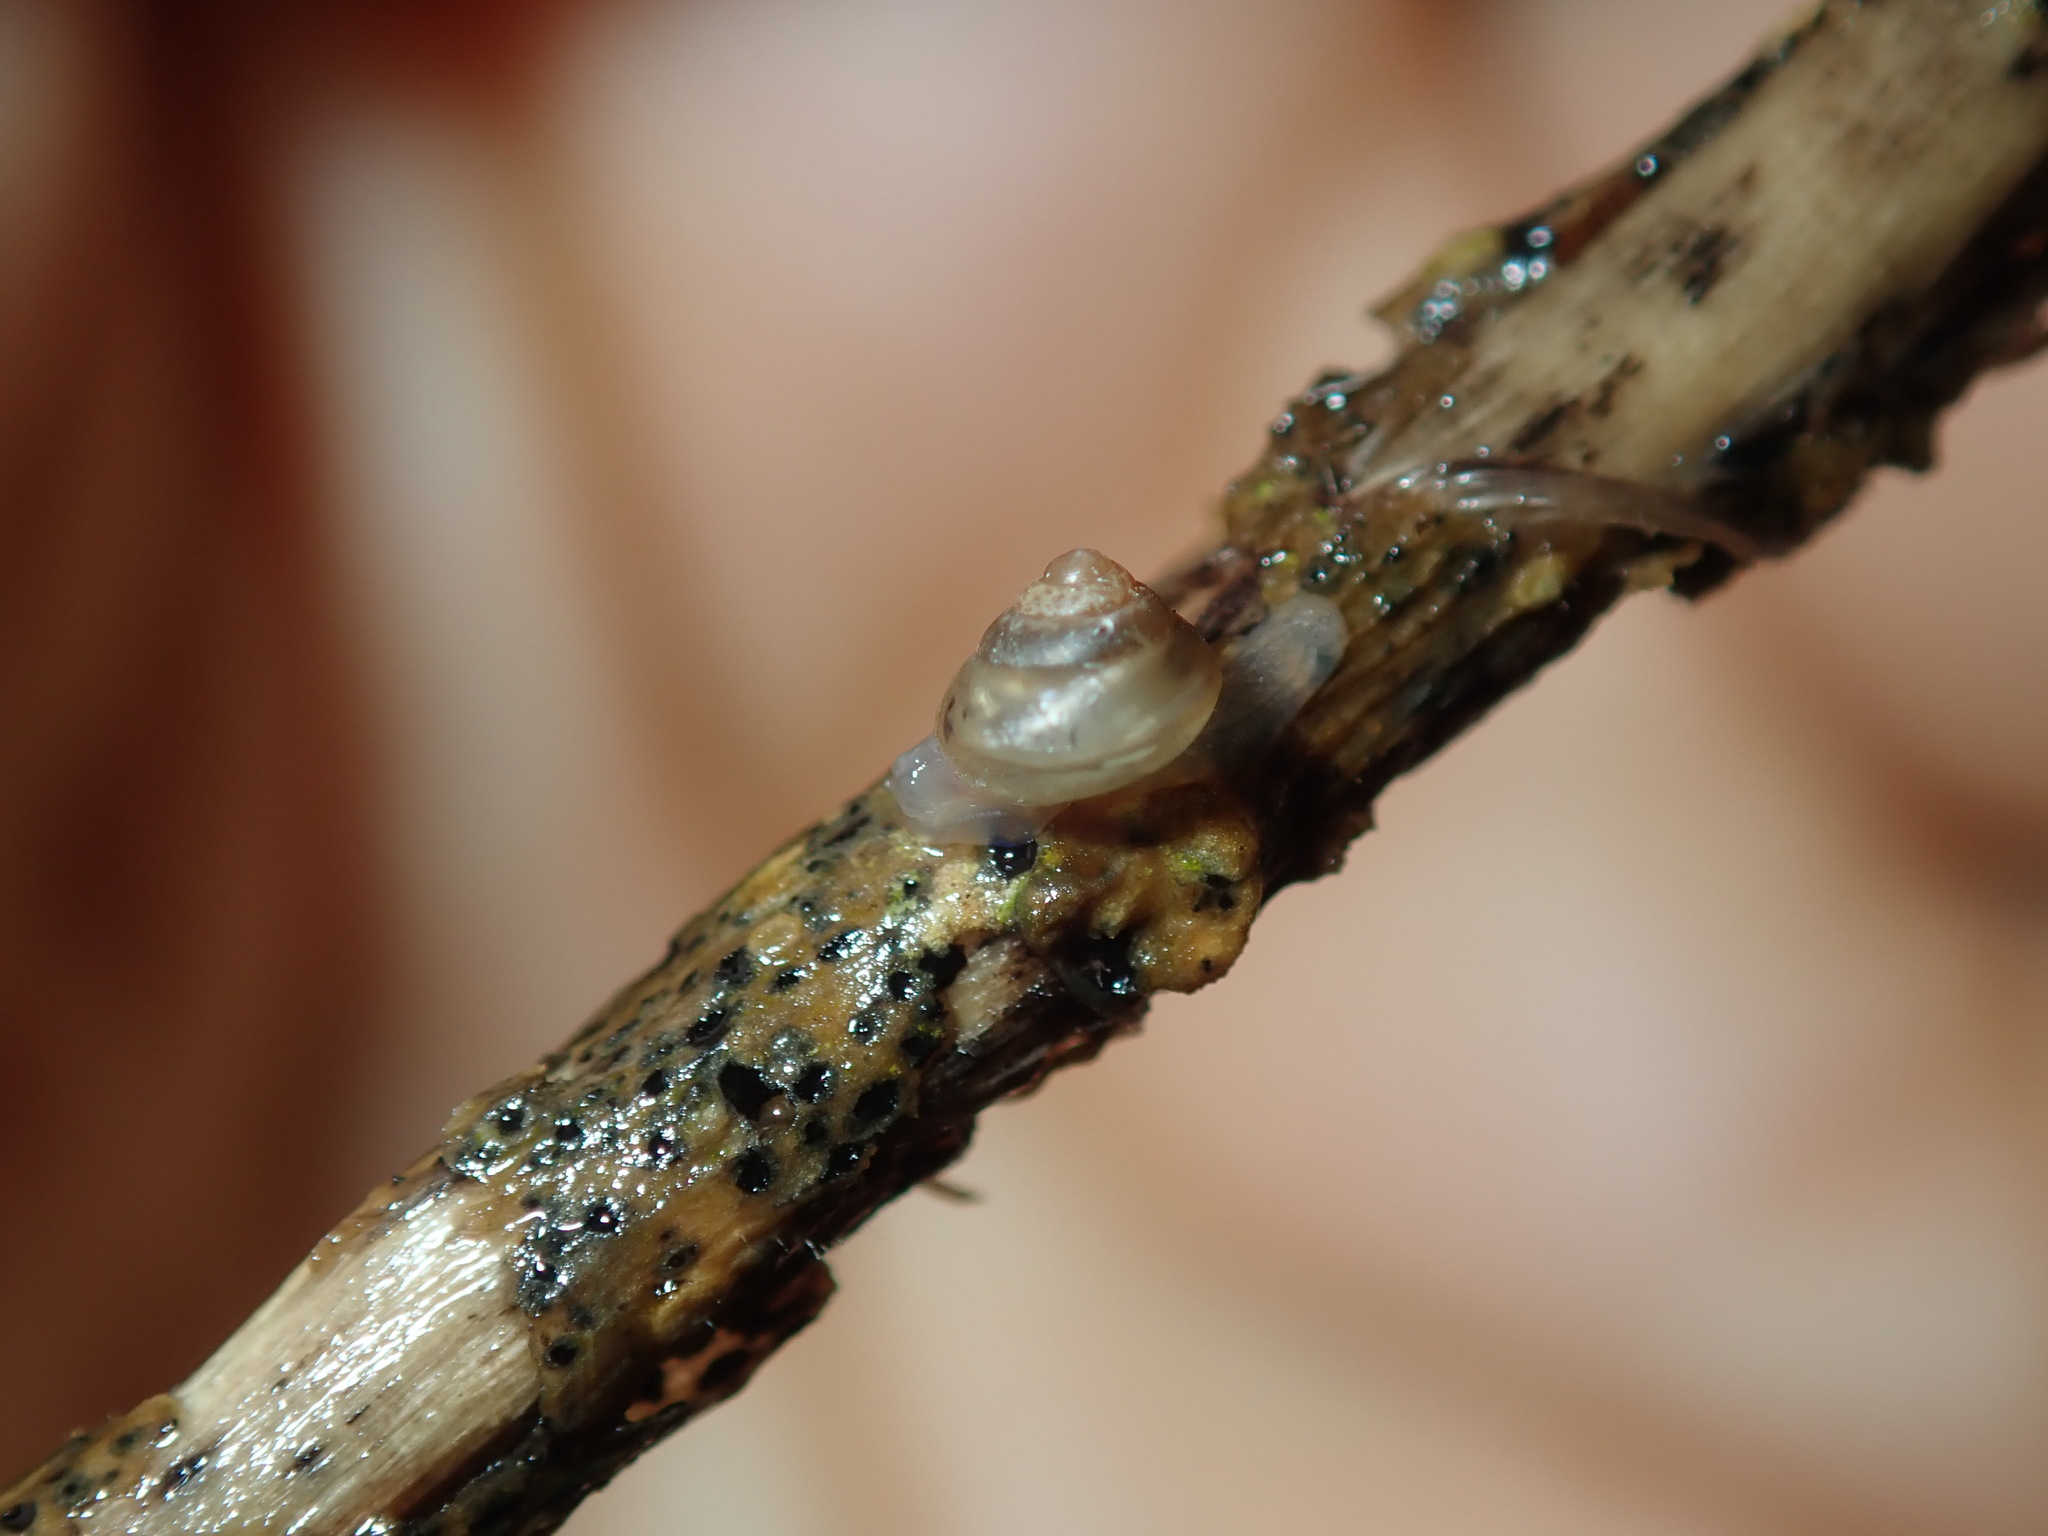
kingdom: Animalia
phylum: Mollusca
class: Gastropoda
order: Stylommatophora
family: Euconulidae
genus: Coneuplecta
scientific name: Coneuplecta calculosa
